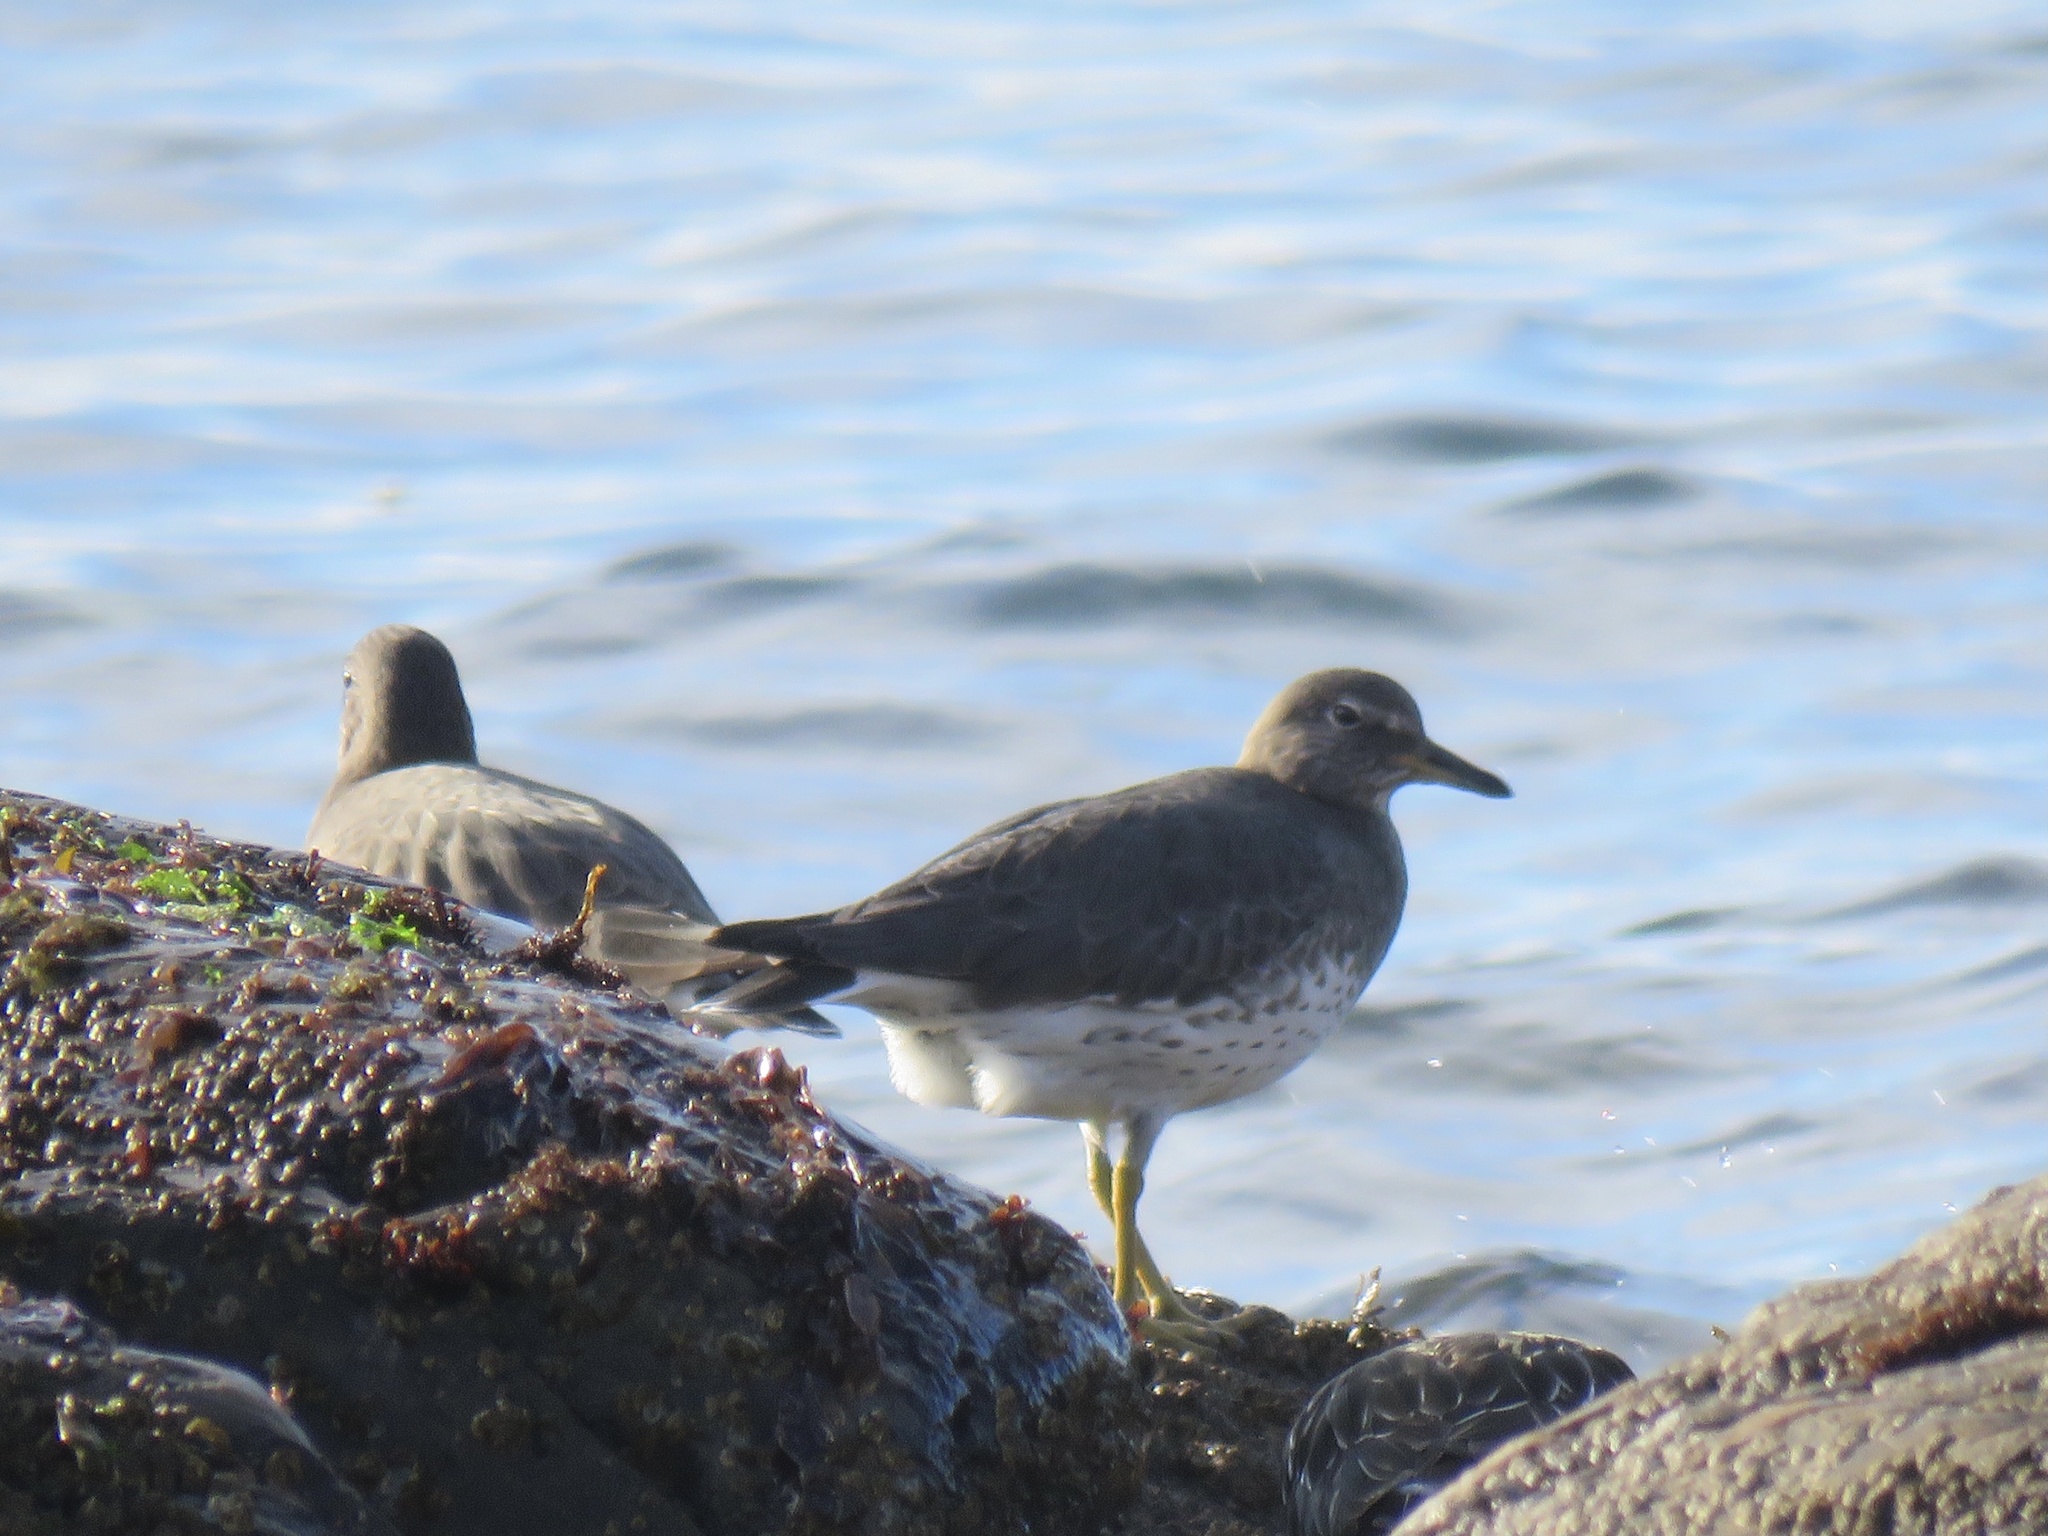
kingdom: Animalia
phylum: Chordata
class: Aves
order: Charadriiformes
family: Scolopacidae
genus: Calidris
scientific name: Calidris virgata
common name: Surfbird
